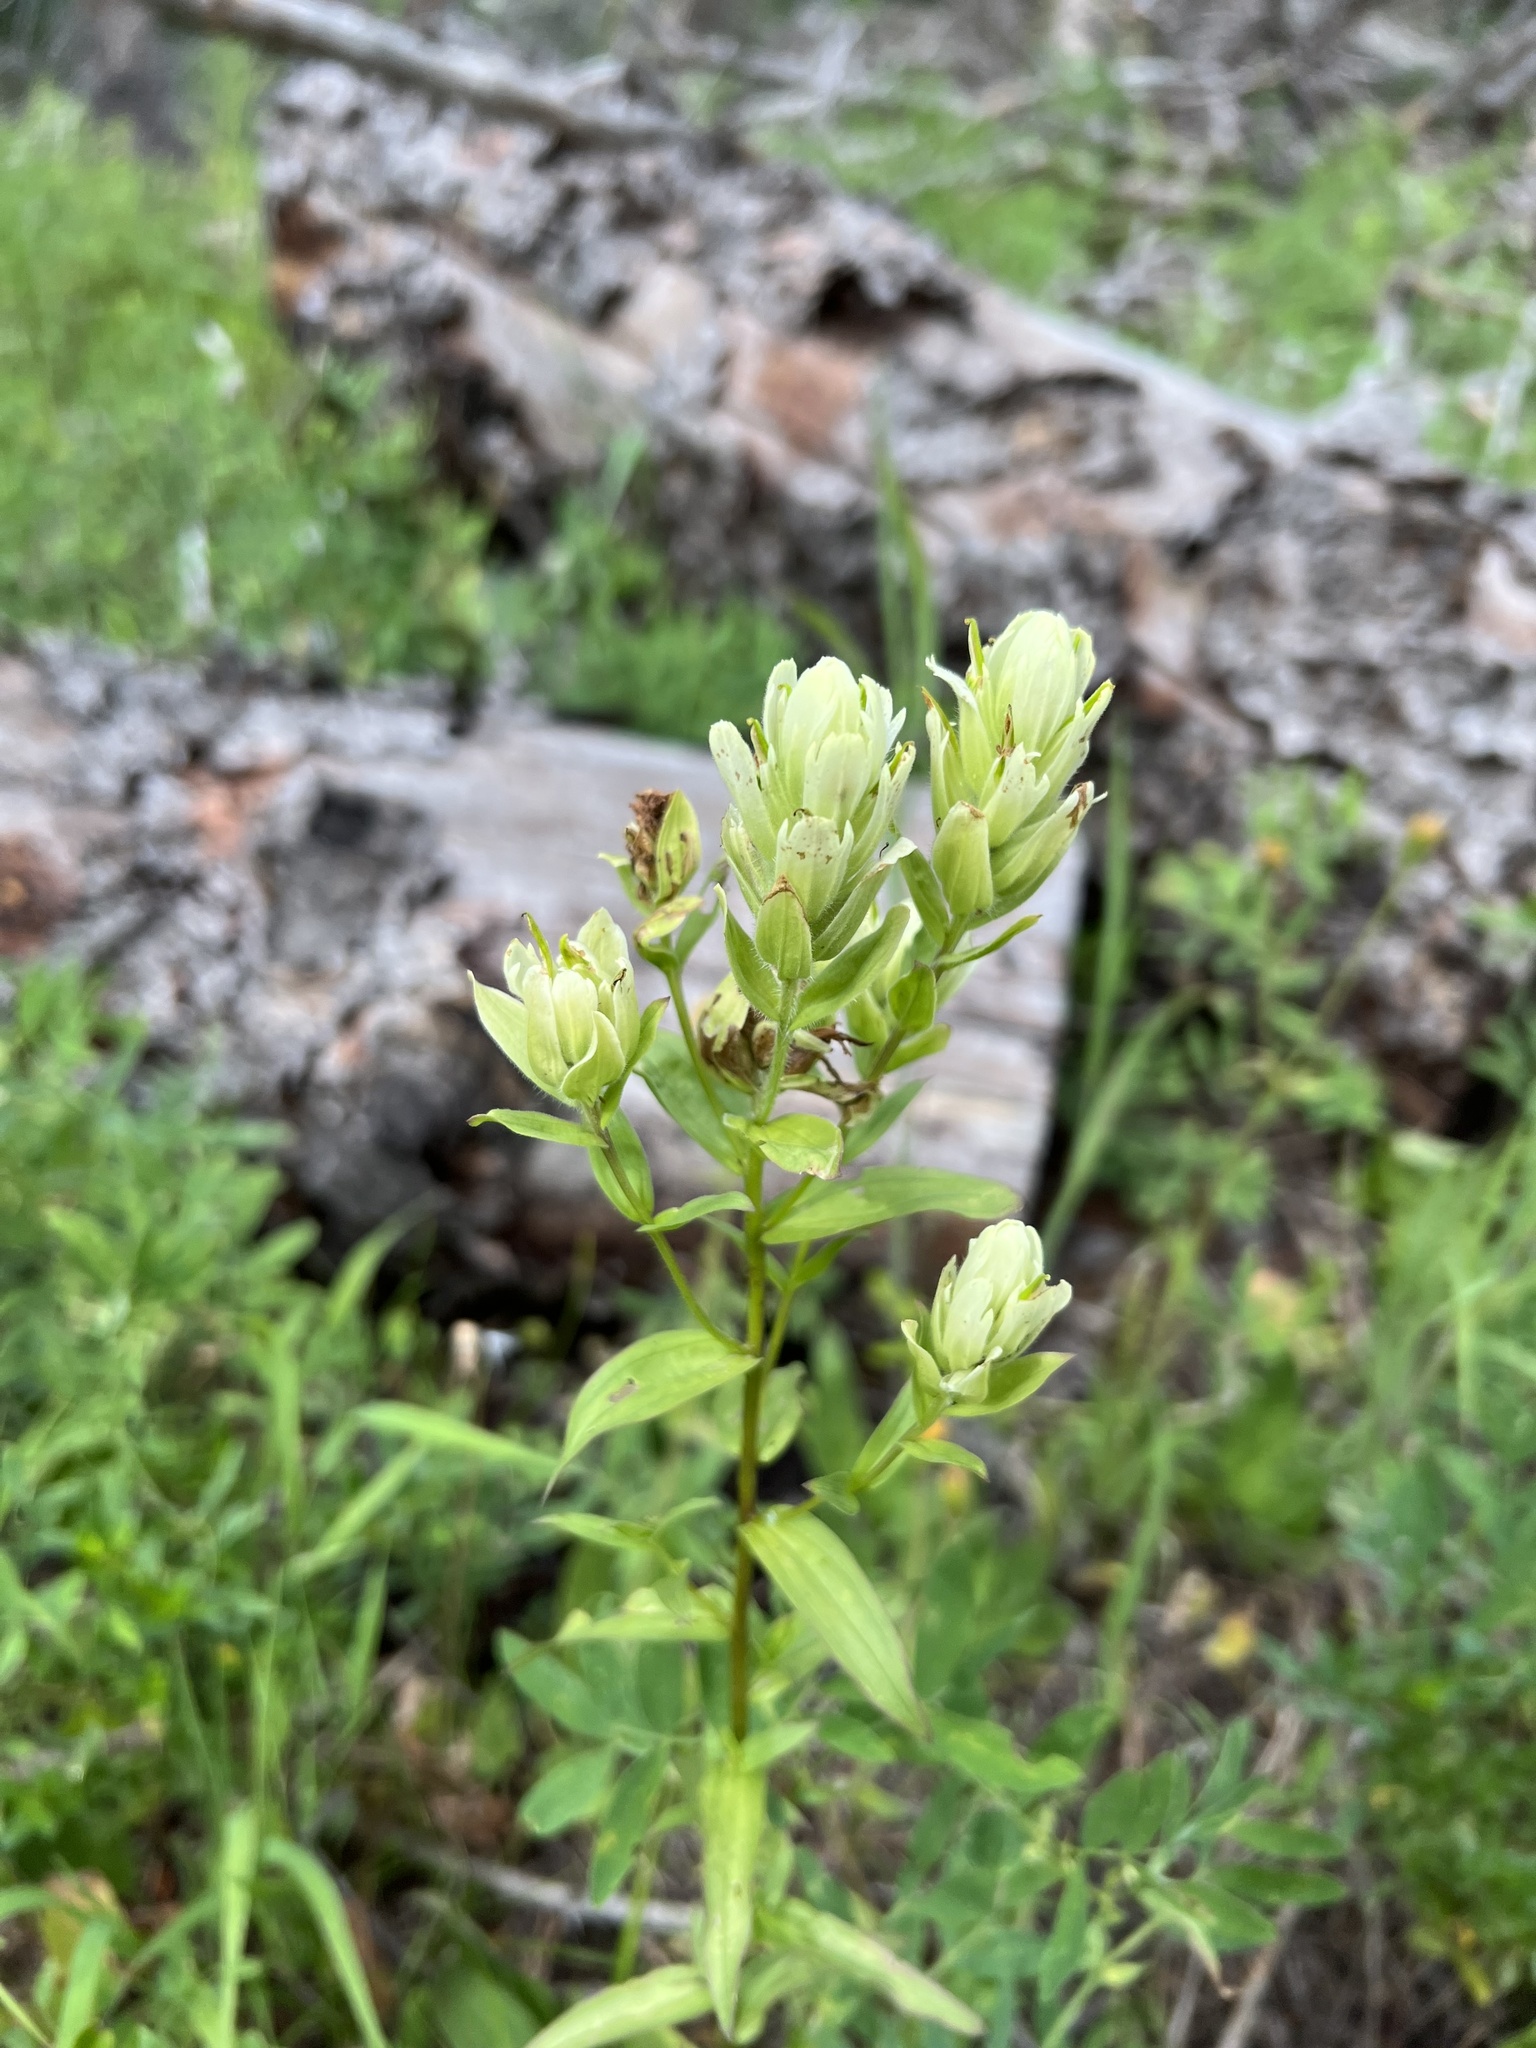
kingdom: Plantae
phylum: Tracheophyta
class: Magnoliopsida
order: Lamiales
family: Orobanchaceae
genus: Castilleja
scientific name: Castilleja septentrionalis
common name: Northeastern paintbrush
